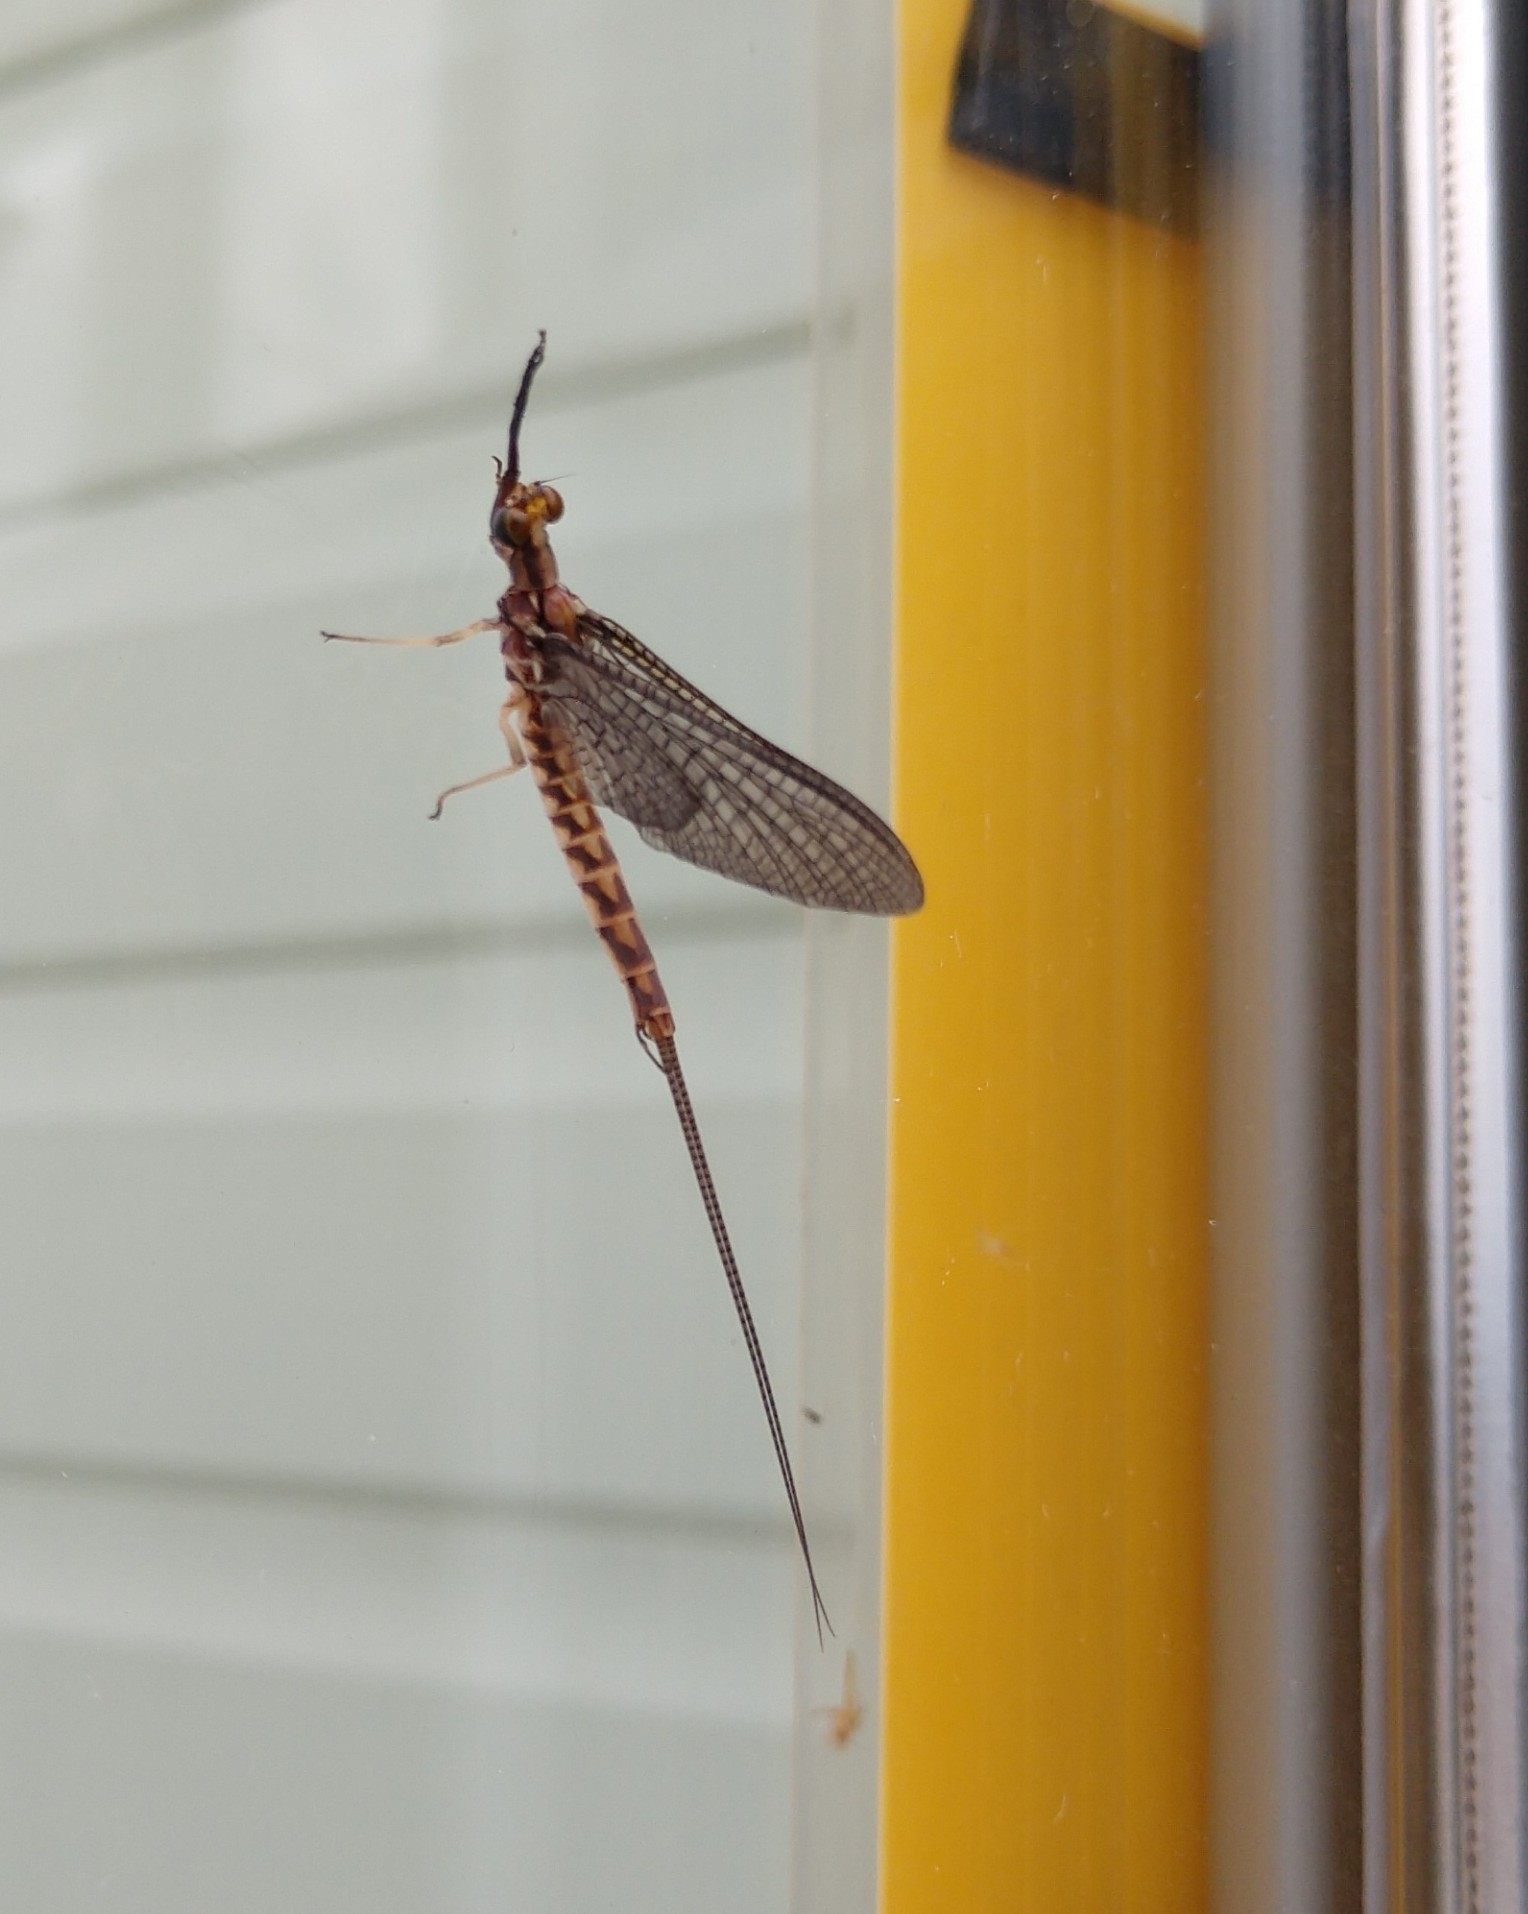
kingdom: Animalia
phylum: Arthropoda
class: Insecta
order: Ephemeroptera
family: Ephemeridae
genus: Hexagenia
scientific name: Hexagenia limbata
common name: Giant mayfly
